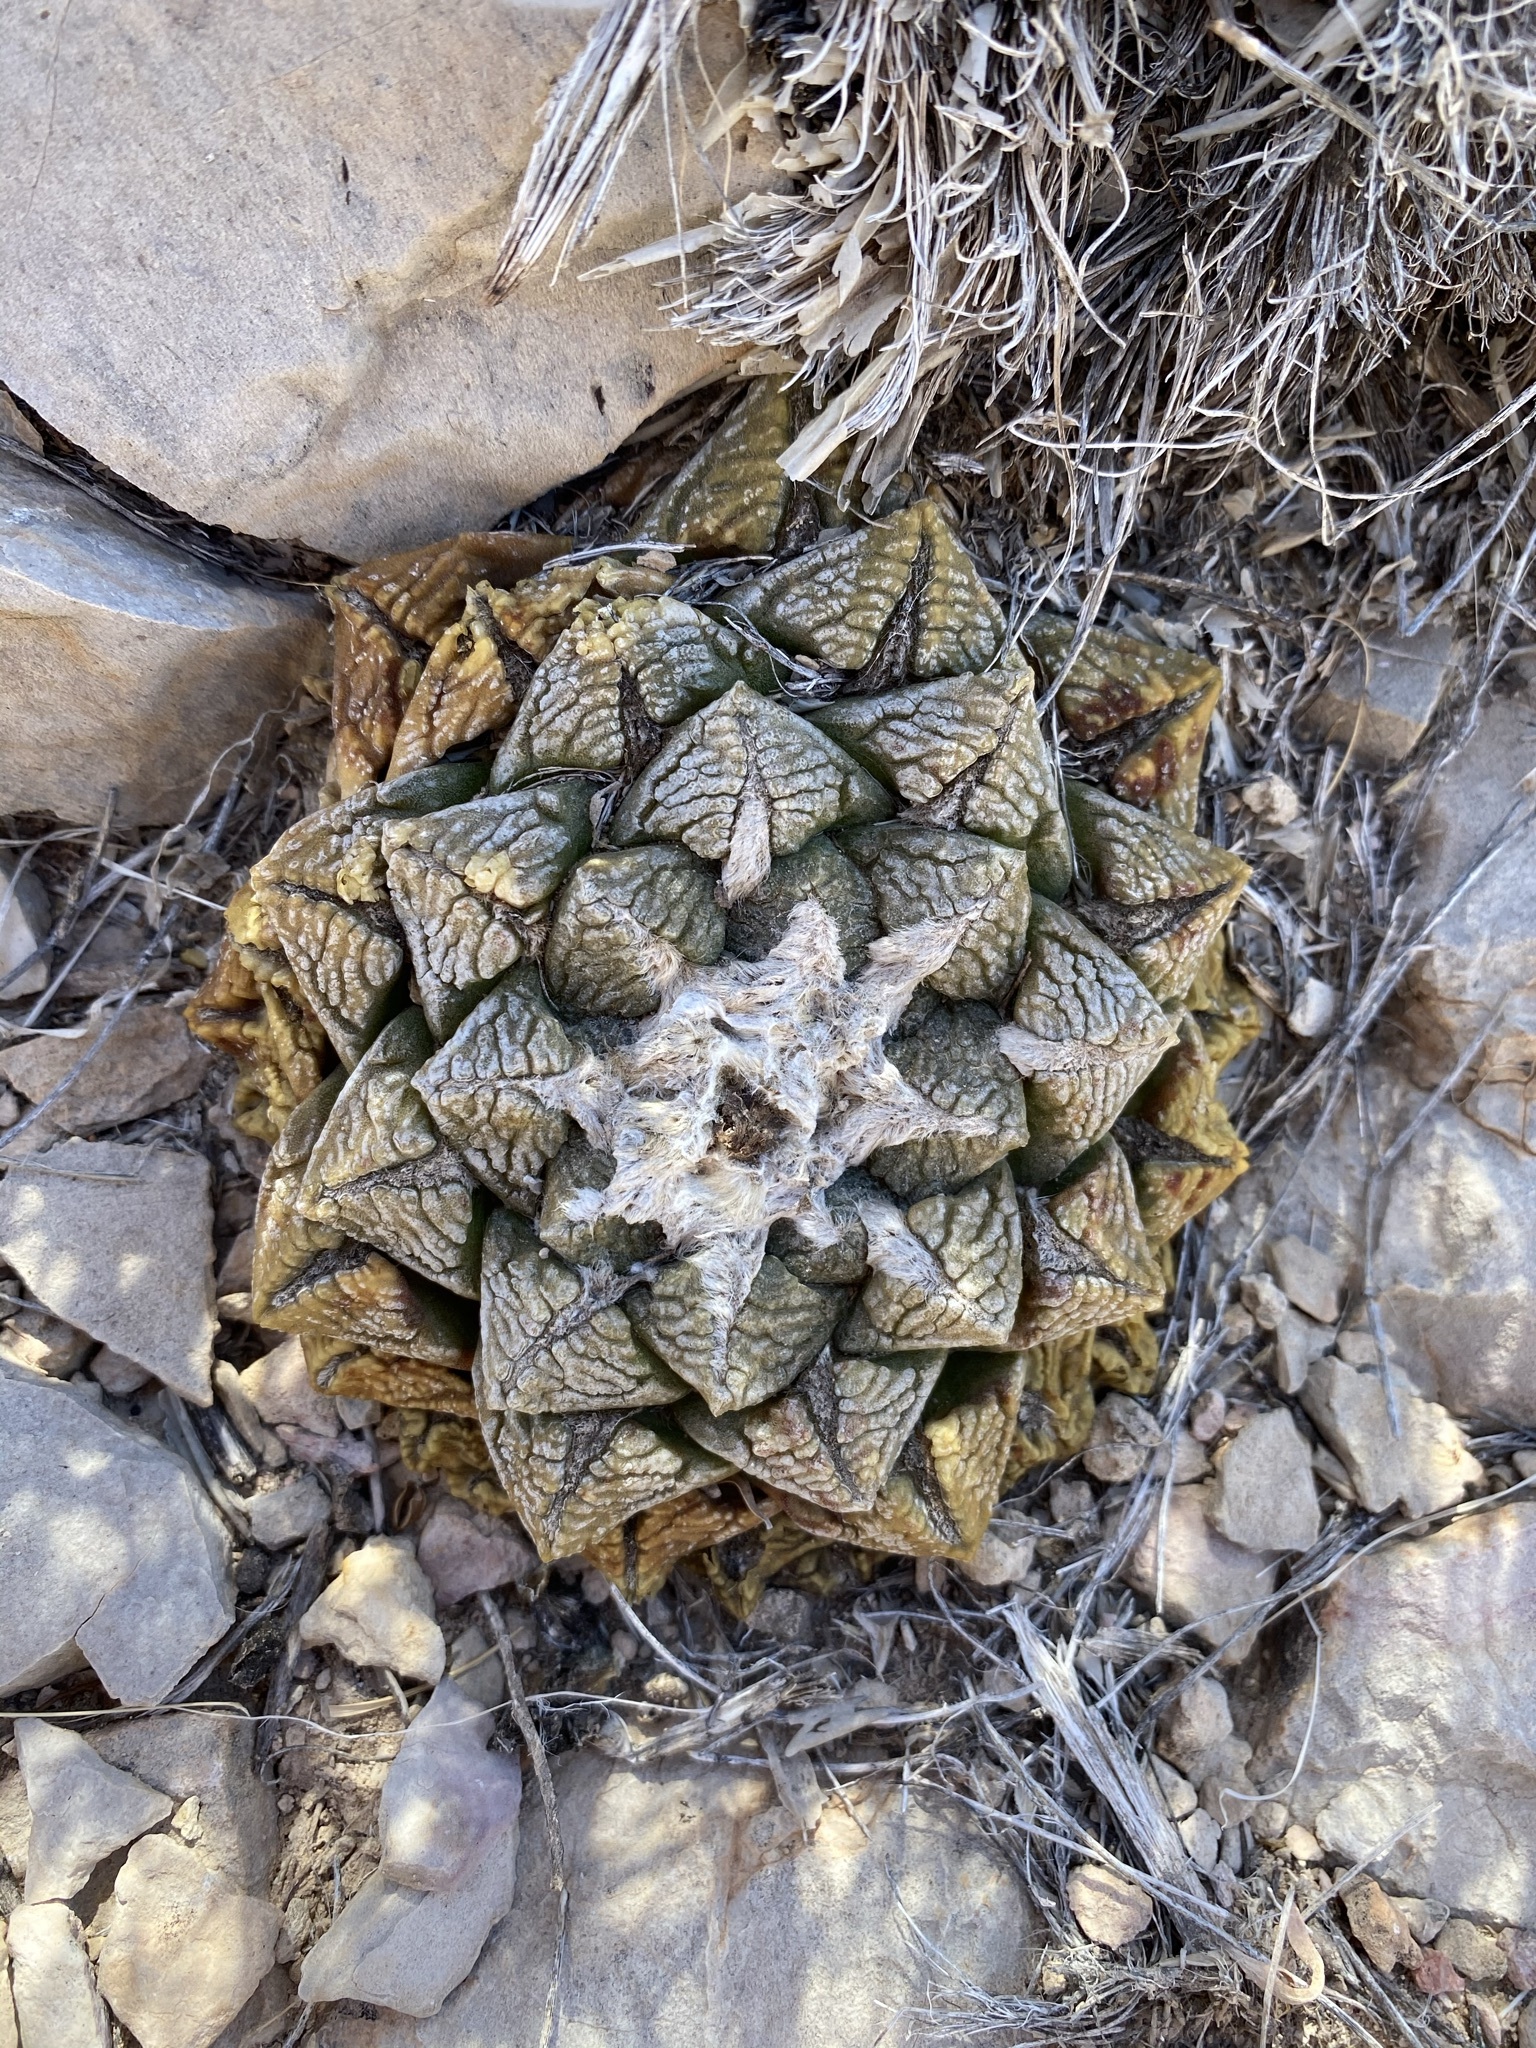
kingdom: Plantae
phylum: Tracheophyta
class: Magnoliopsida
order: Caryophyllales
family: Cactaceae
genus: Ariocarpus
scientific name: Ariocarpus fissuratus
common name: Chautle-living rock
